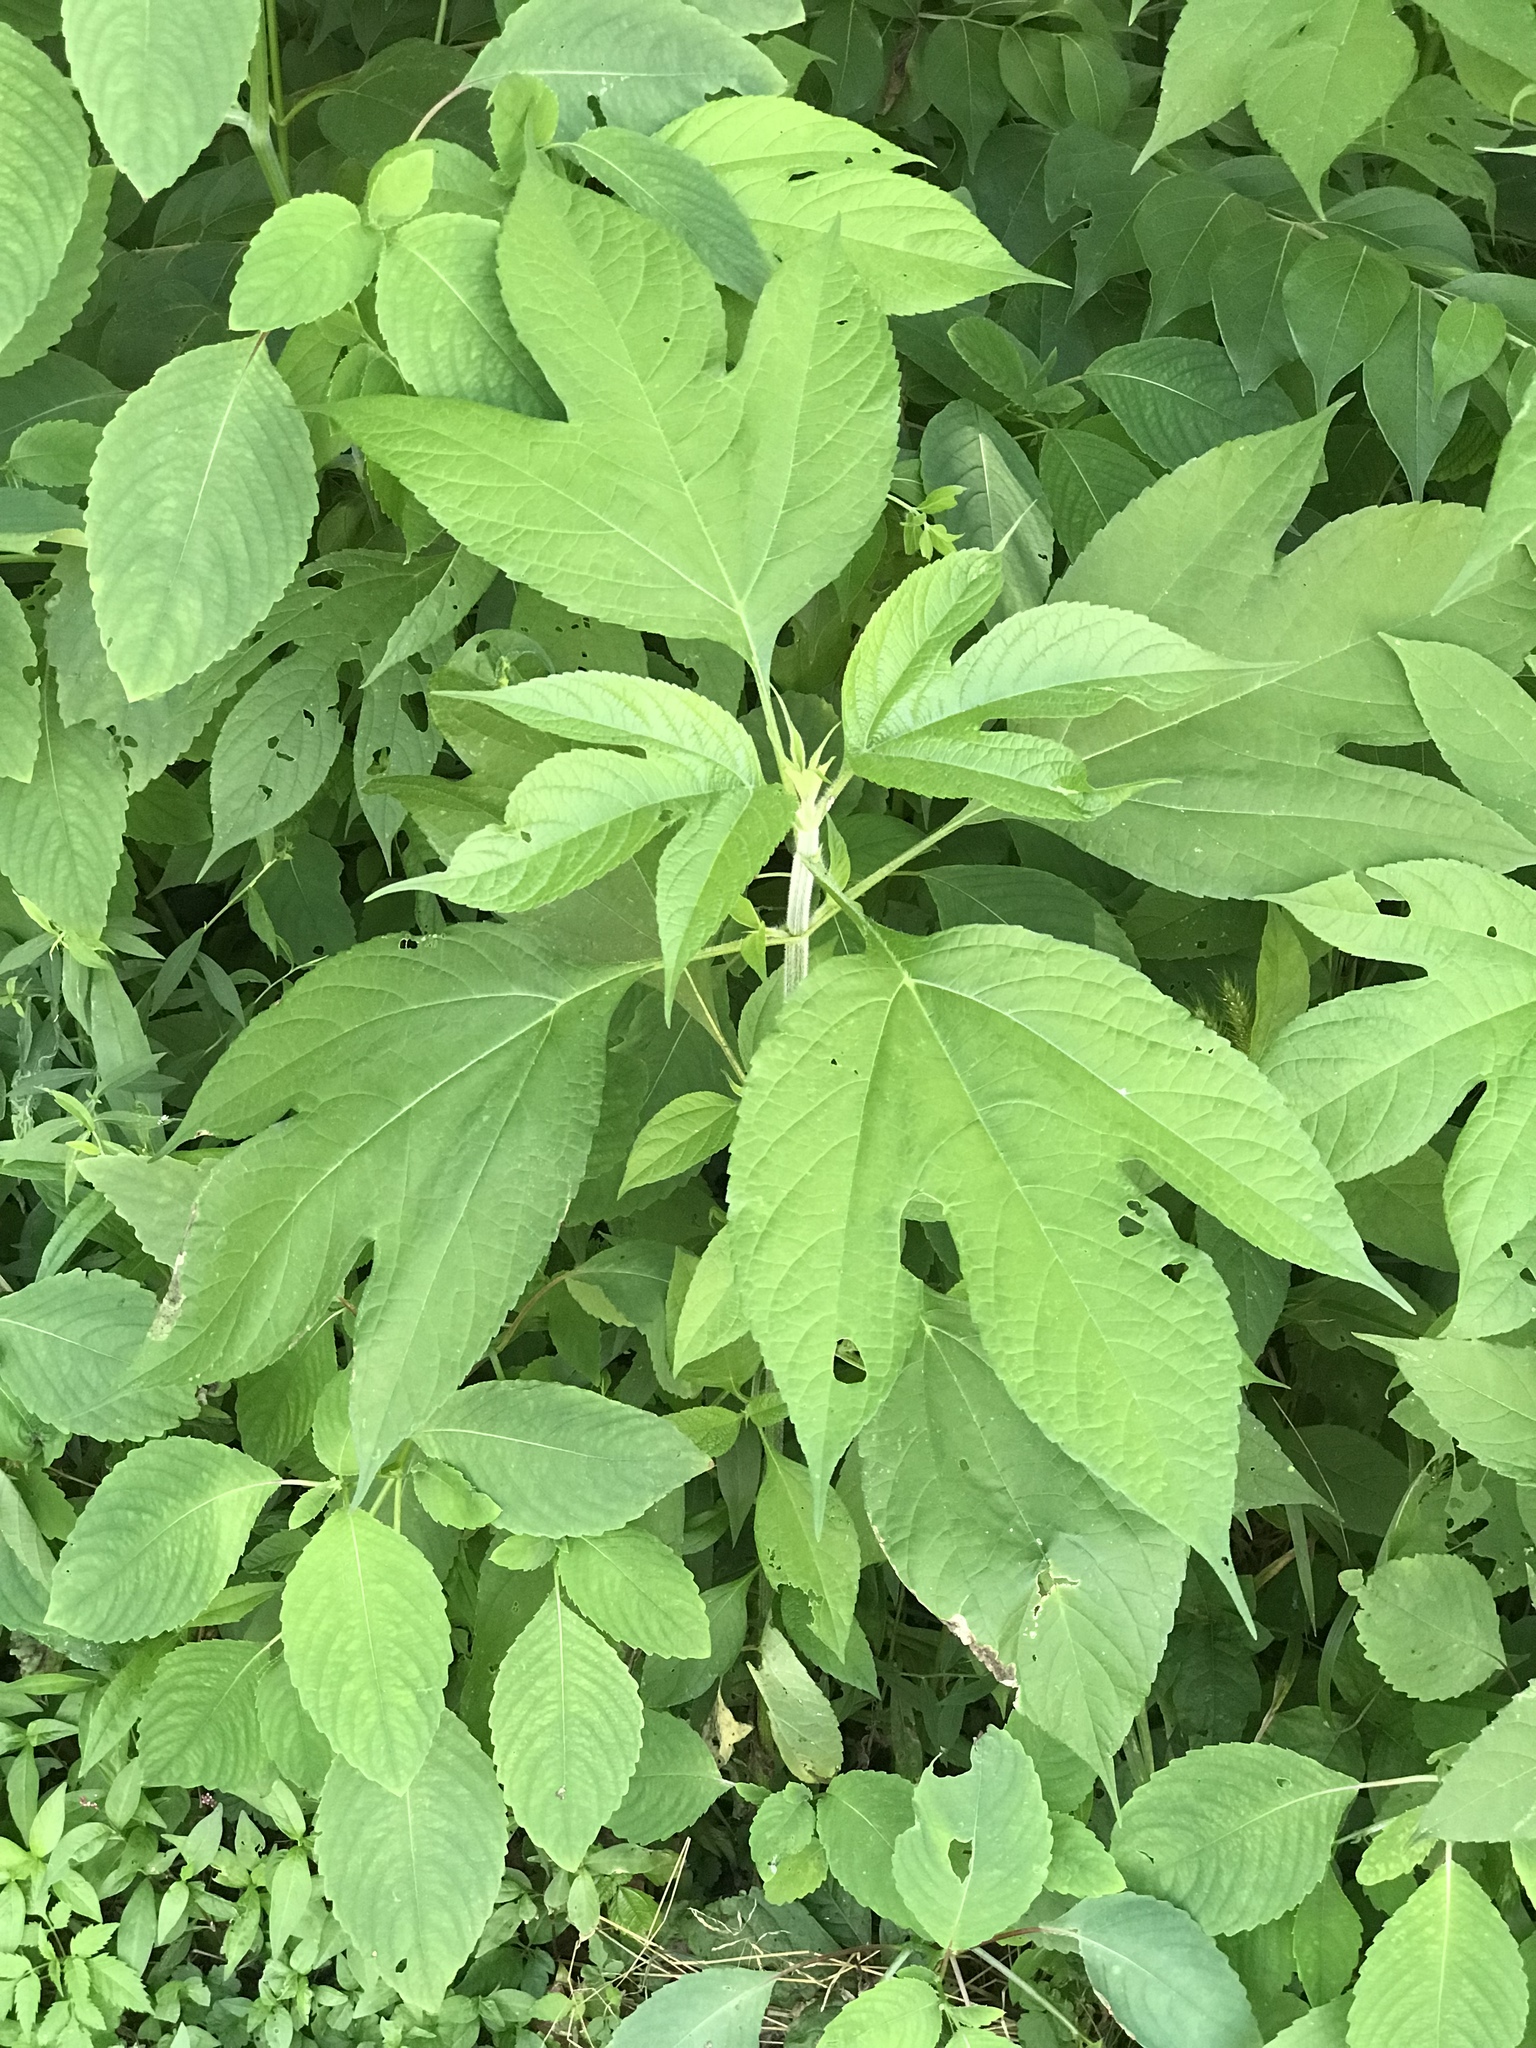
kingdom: Plantae
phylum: Tracheophyta
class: Magnoliopsida
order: Asterales
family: Asteraceae
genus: Ambrosia
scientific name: Ambrosia trifida
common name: Giant ragweed
